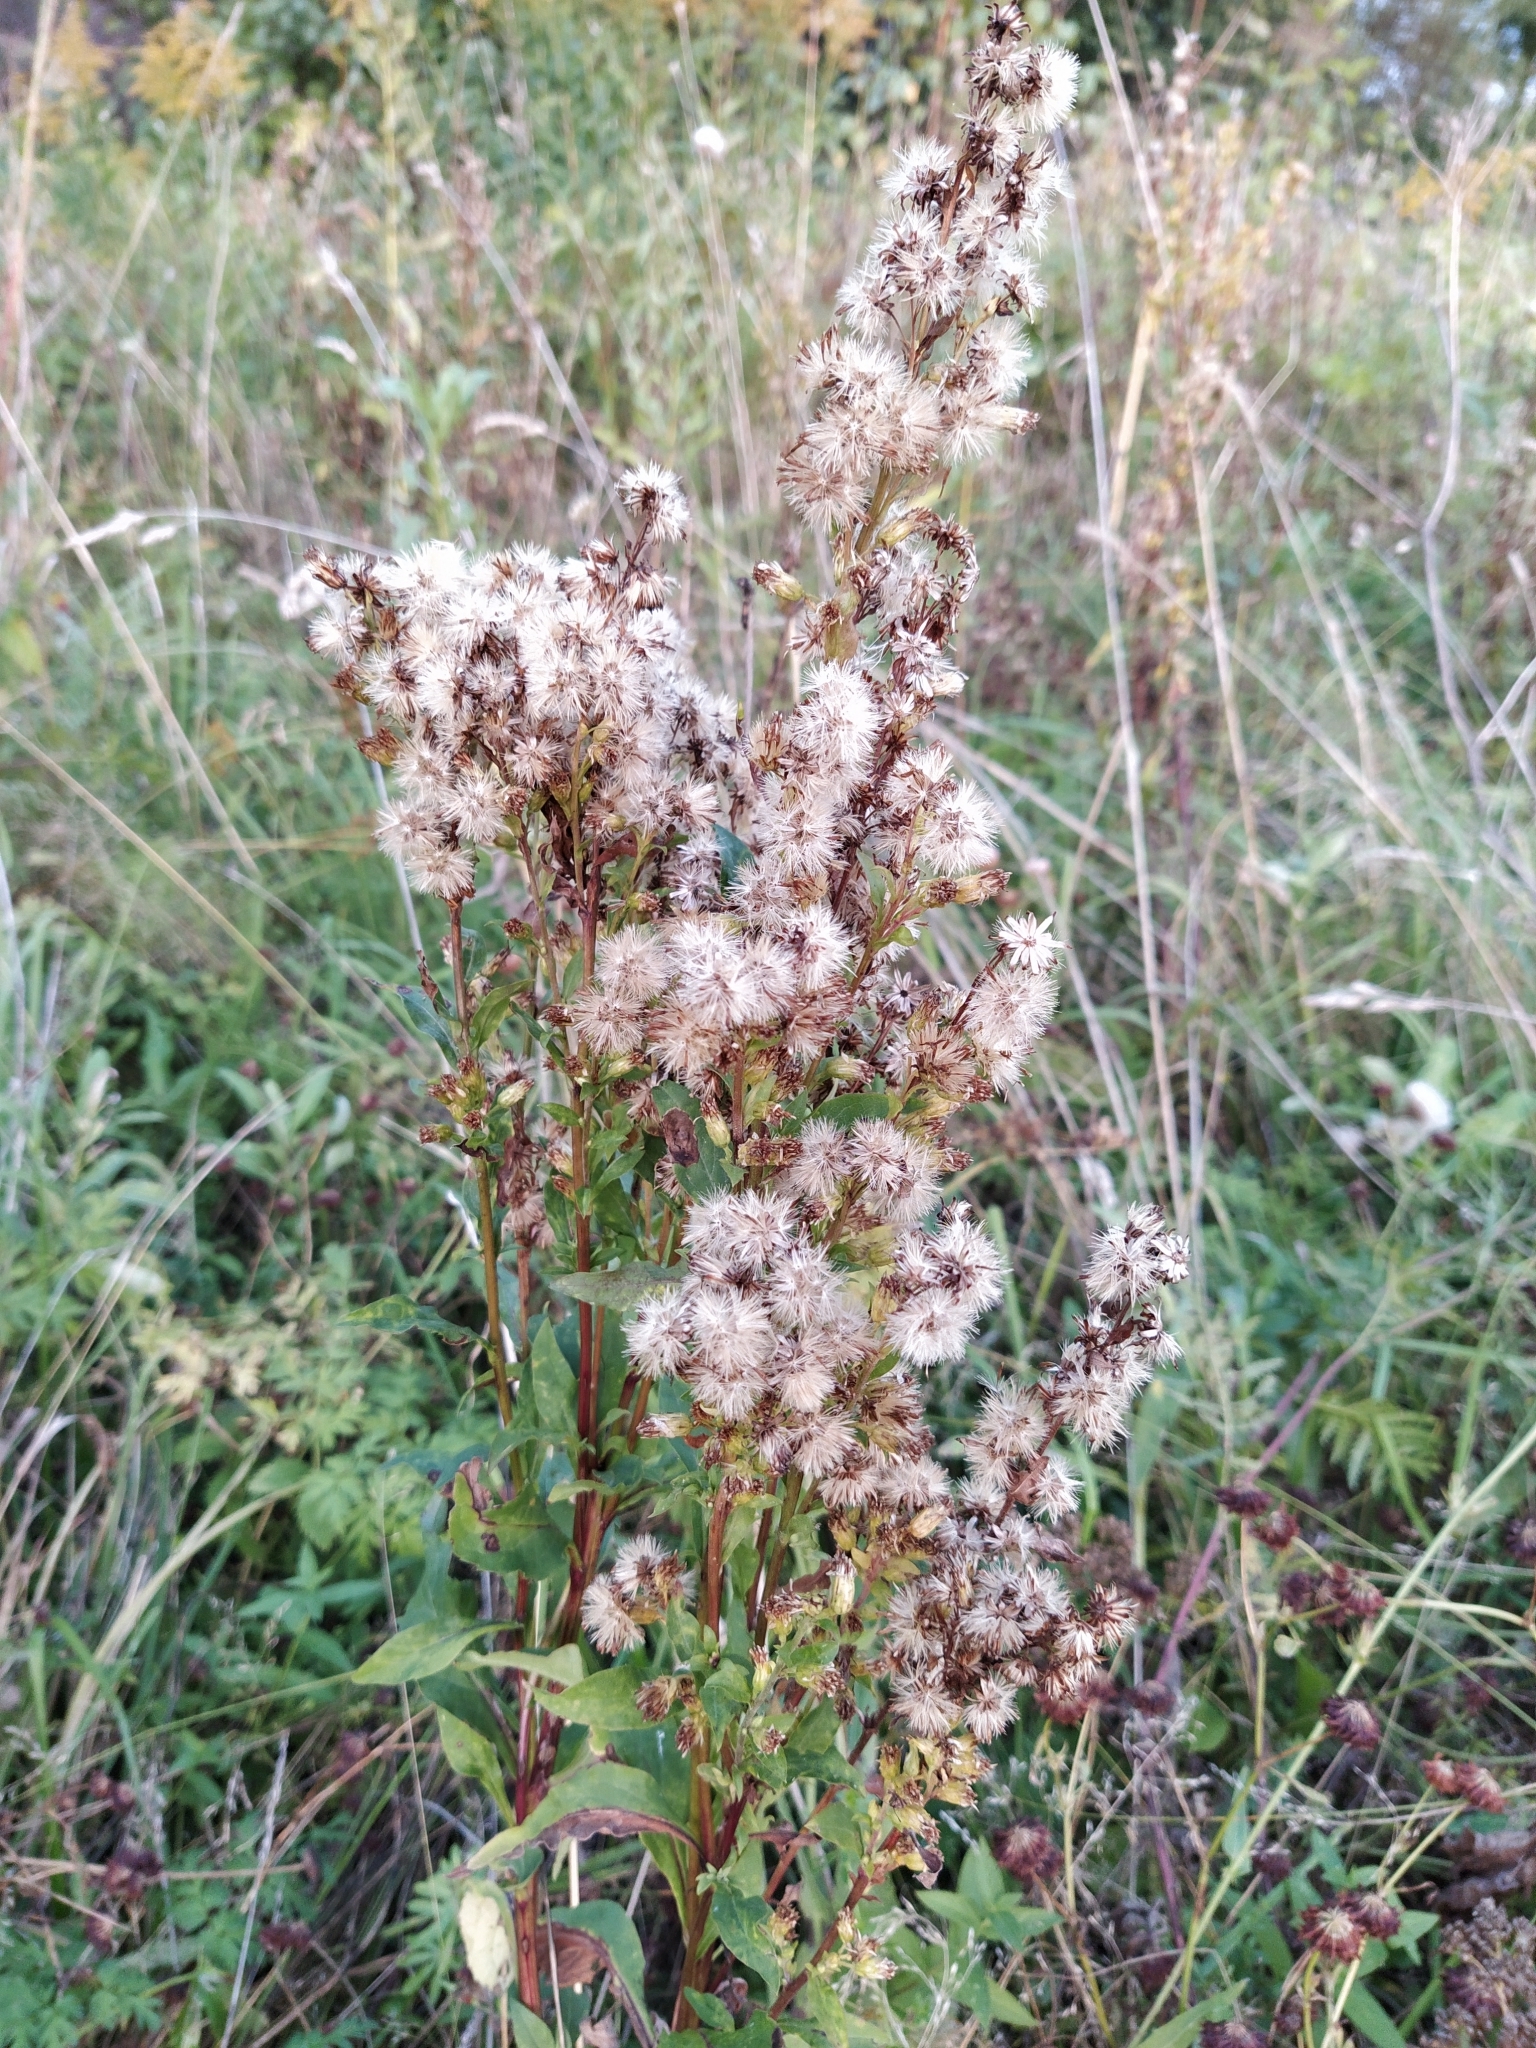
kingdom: Plantae
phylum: Tracheophyta
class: Magnoliopsida
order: Asterales
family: Asteraceae
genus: Solidago
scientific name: Solidago virgaurea
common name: Goldenrod
